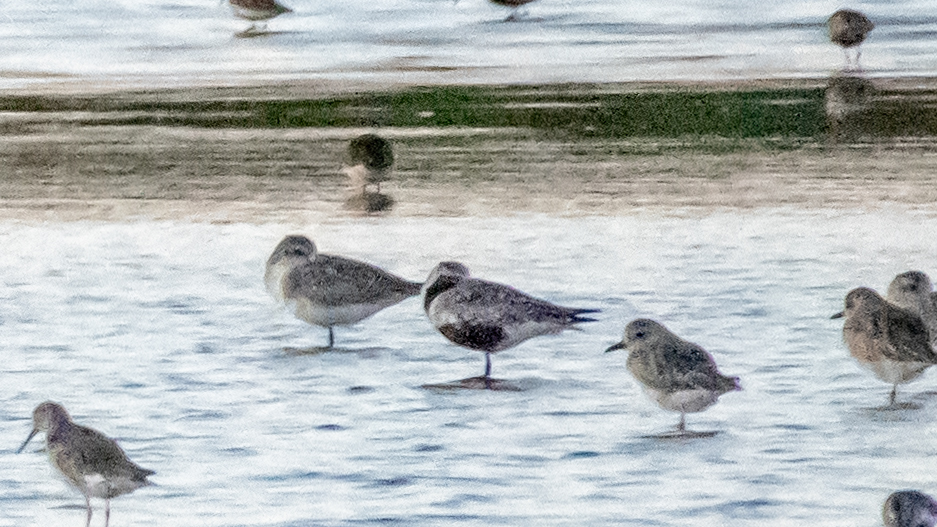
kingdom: Animalia
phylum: Chordata
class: Aves
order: Charadriiformes
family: Charadriidae
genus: Pluvialis
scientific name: Pluvialis squatarola
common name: Grey plover
